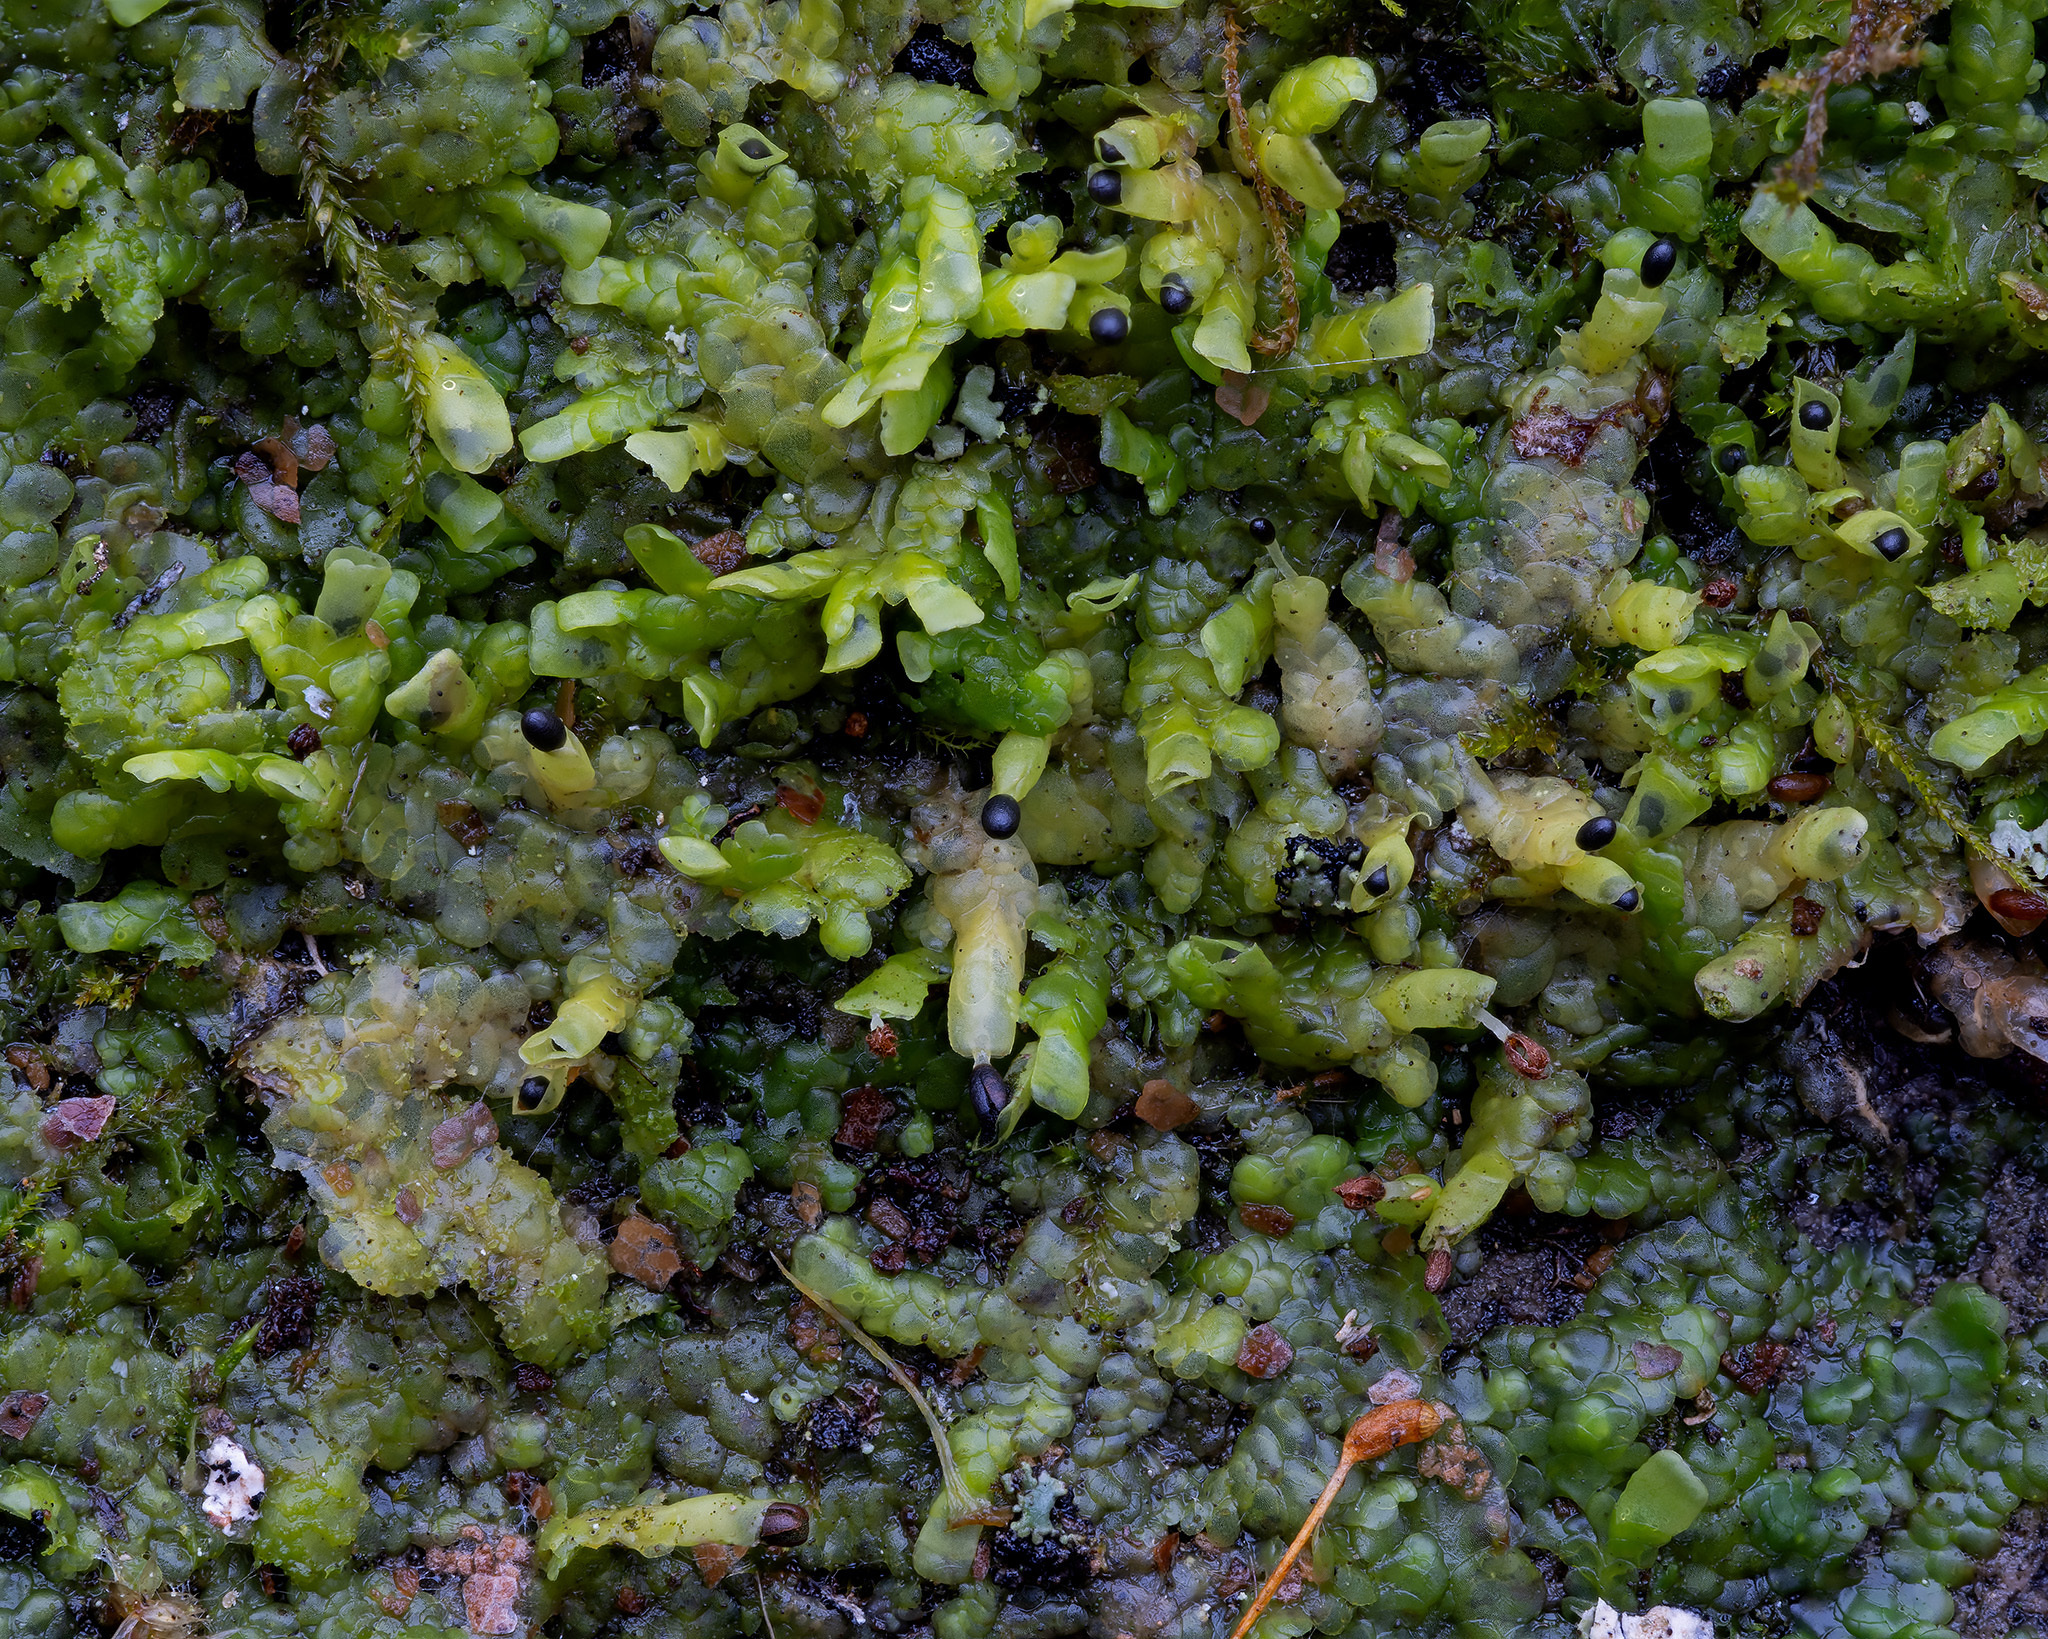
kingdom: Plantae
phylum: Marchantiophyta
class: Jungermanniopsida
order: Porellales
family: Radulaceae
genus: Radula
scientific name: Radula complanata
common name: Flat-leaved scalewort
